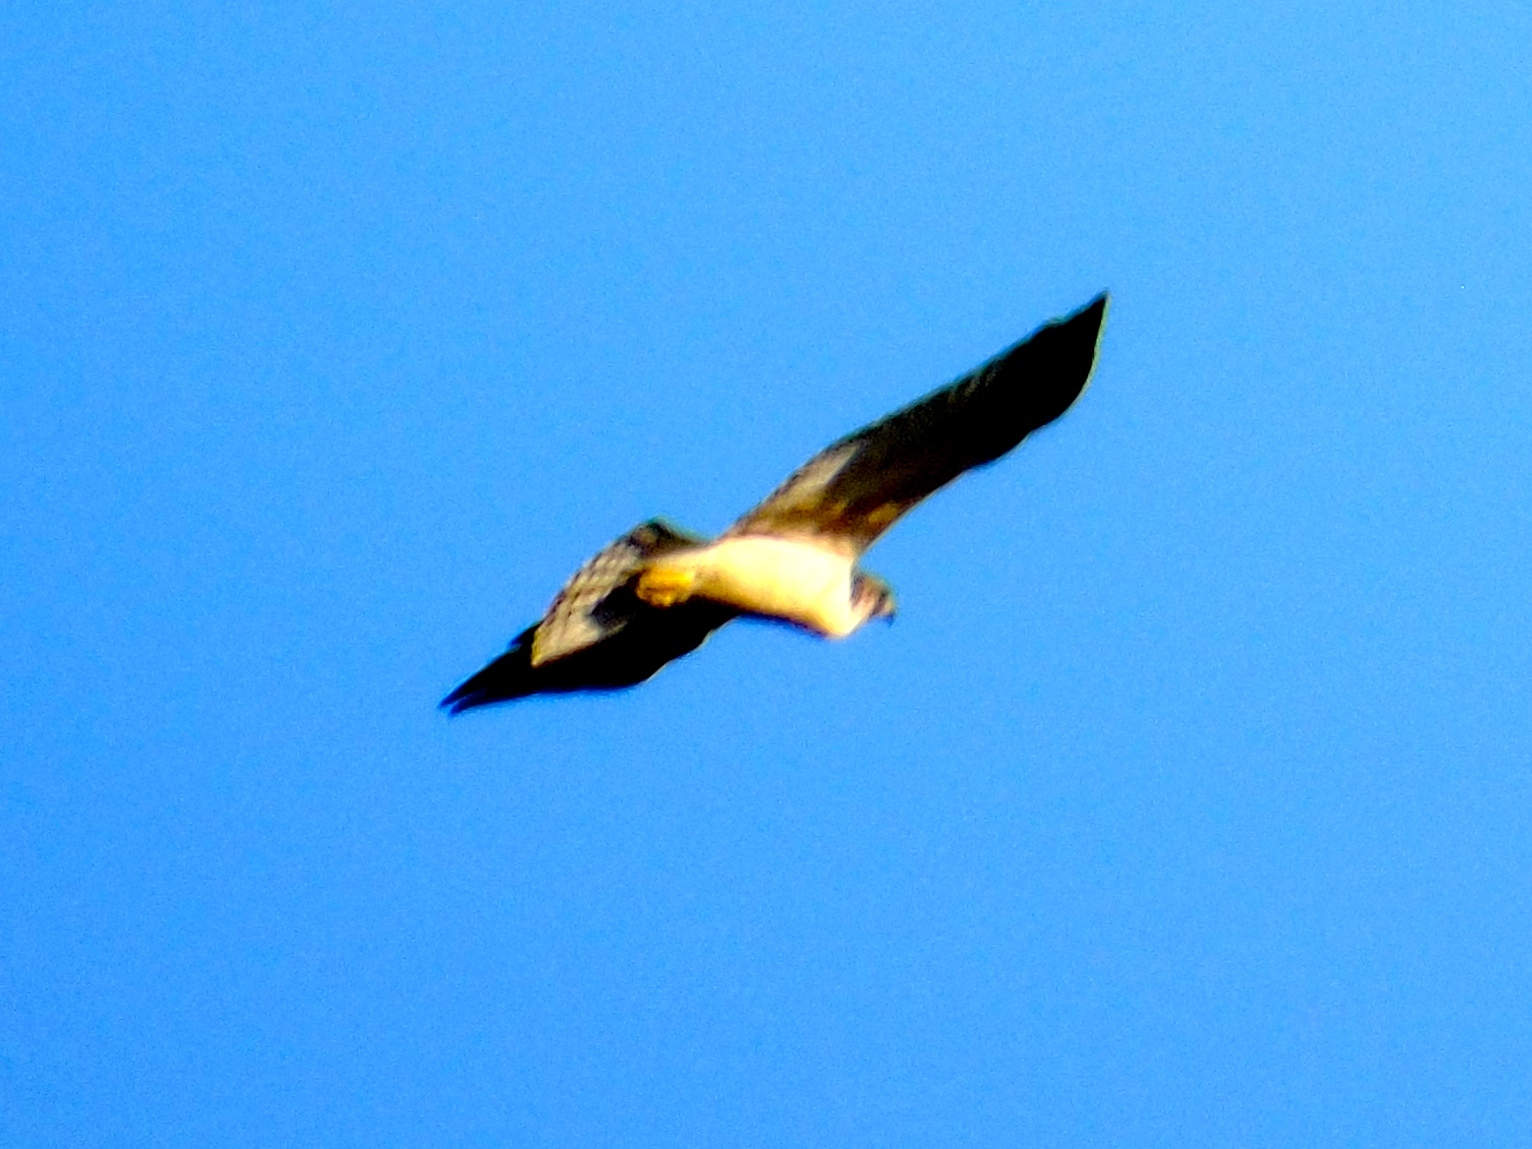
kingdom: Animalia
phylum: Chordata
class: Aves
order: Accipitriformes
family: Pandionidae
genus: Pandion
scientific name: Pandion haliaetus
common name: Osprey
